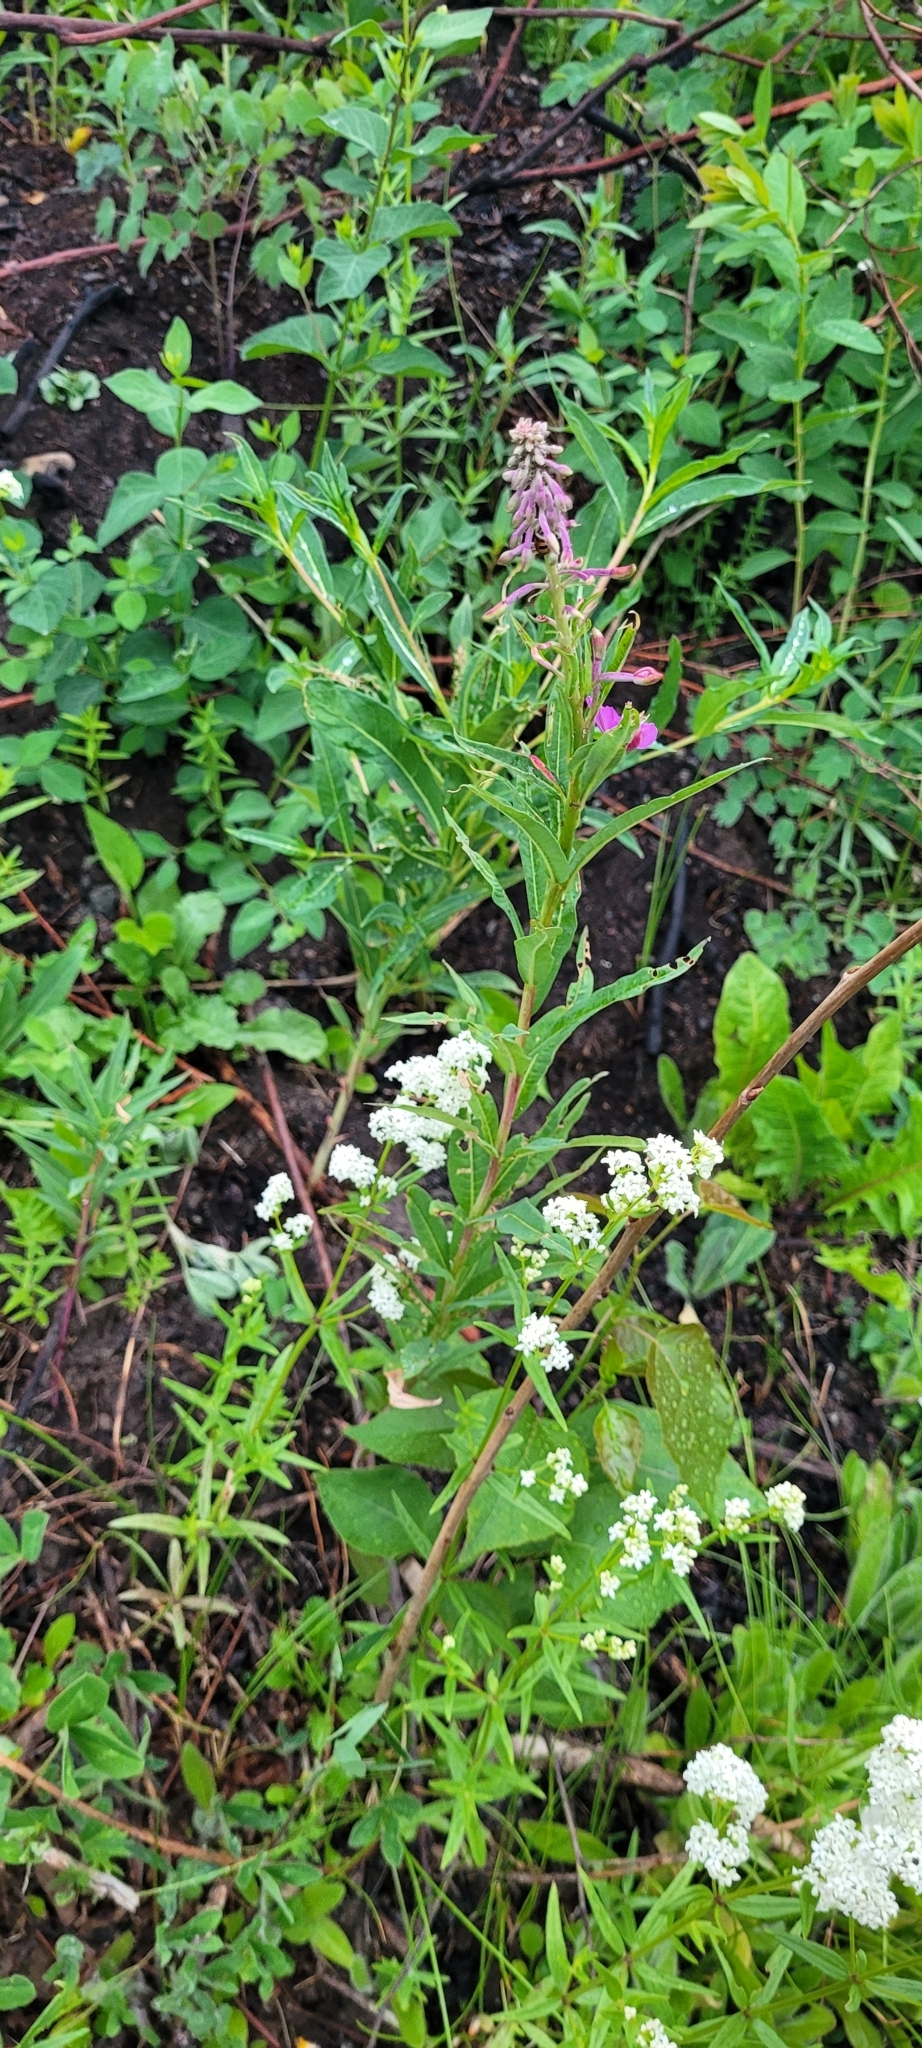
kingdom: Plantae
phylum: Tracheophyta
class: Magnoliopsida
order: Myrtales
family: Onagraceae
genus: Chamaenerion
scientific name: Chamaenerion angustifolium
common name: Fireweed
